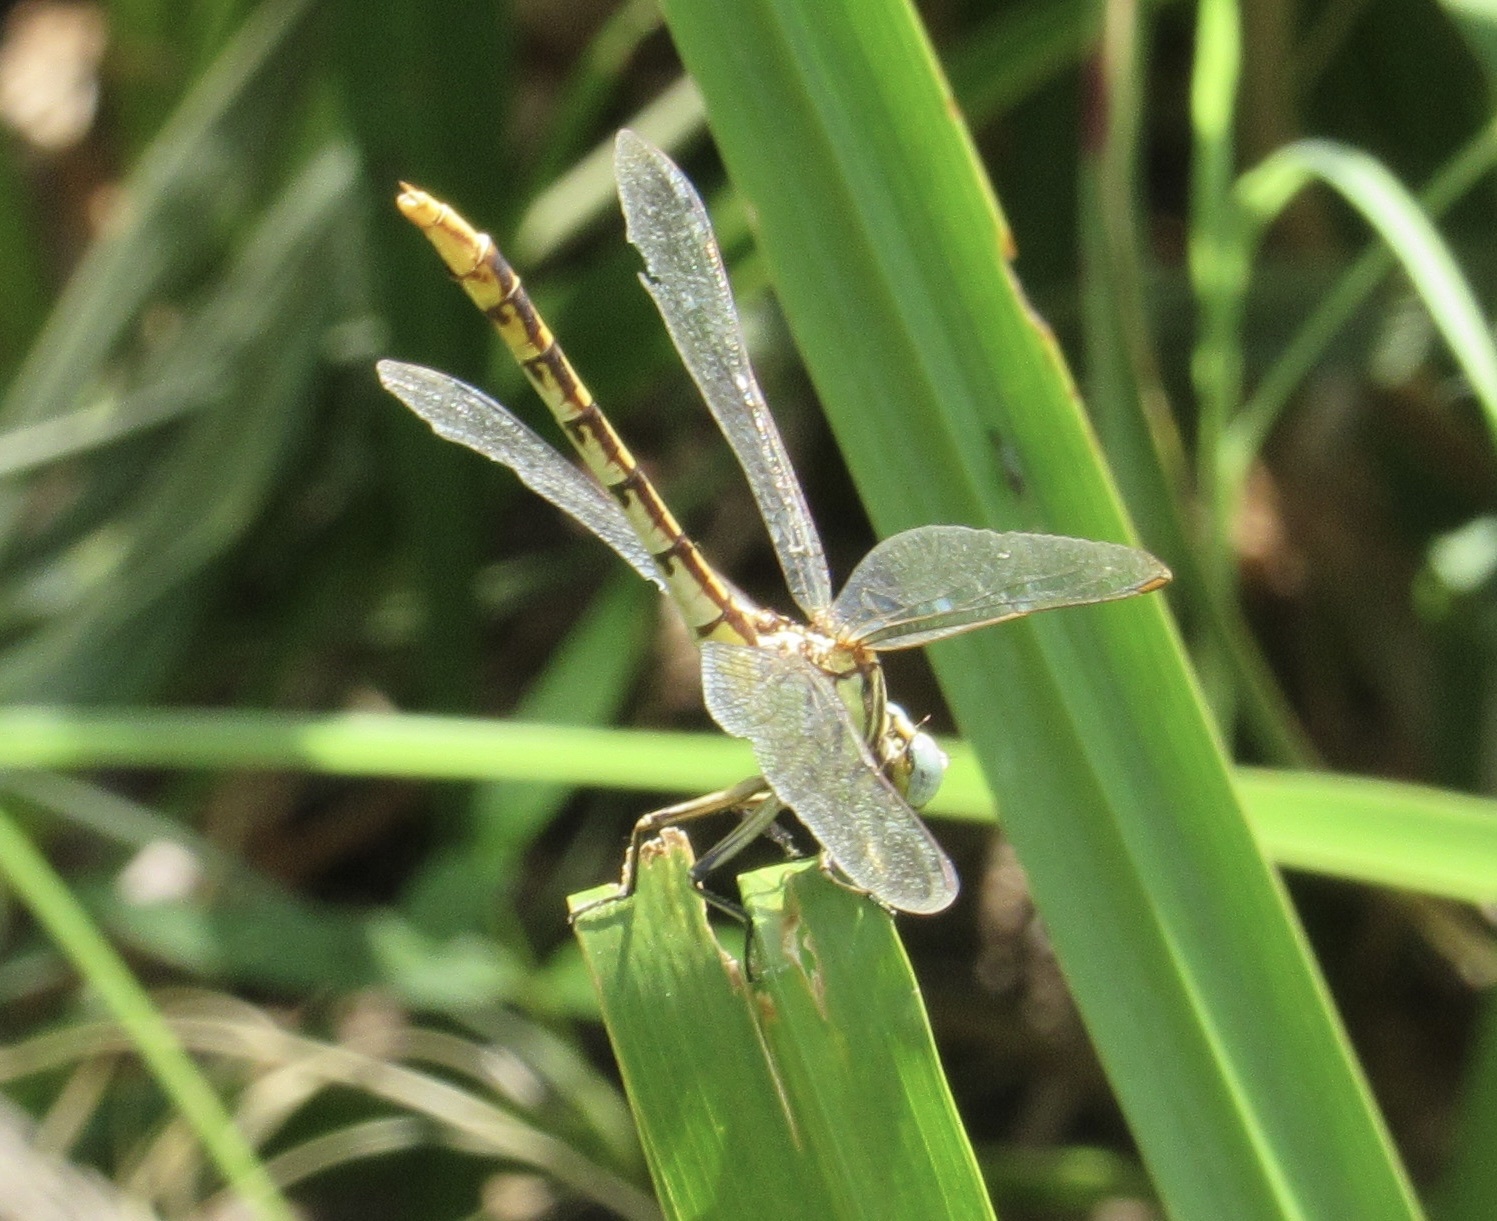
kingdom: Animalia
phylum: Arthropoda
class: Insecta
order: Odonata
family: Gomphidae
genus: Phanogomphus
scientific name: Phanogomphus militaris
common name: Sulphur-tipped clubtail
